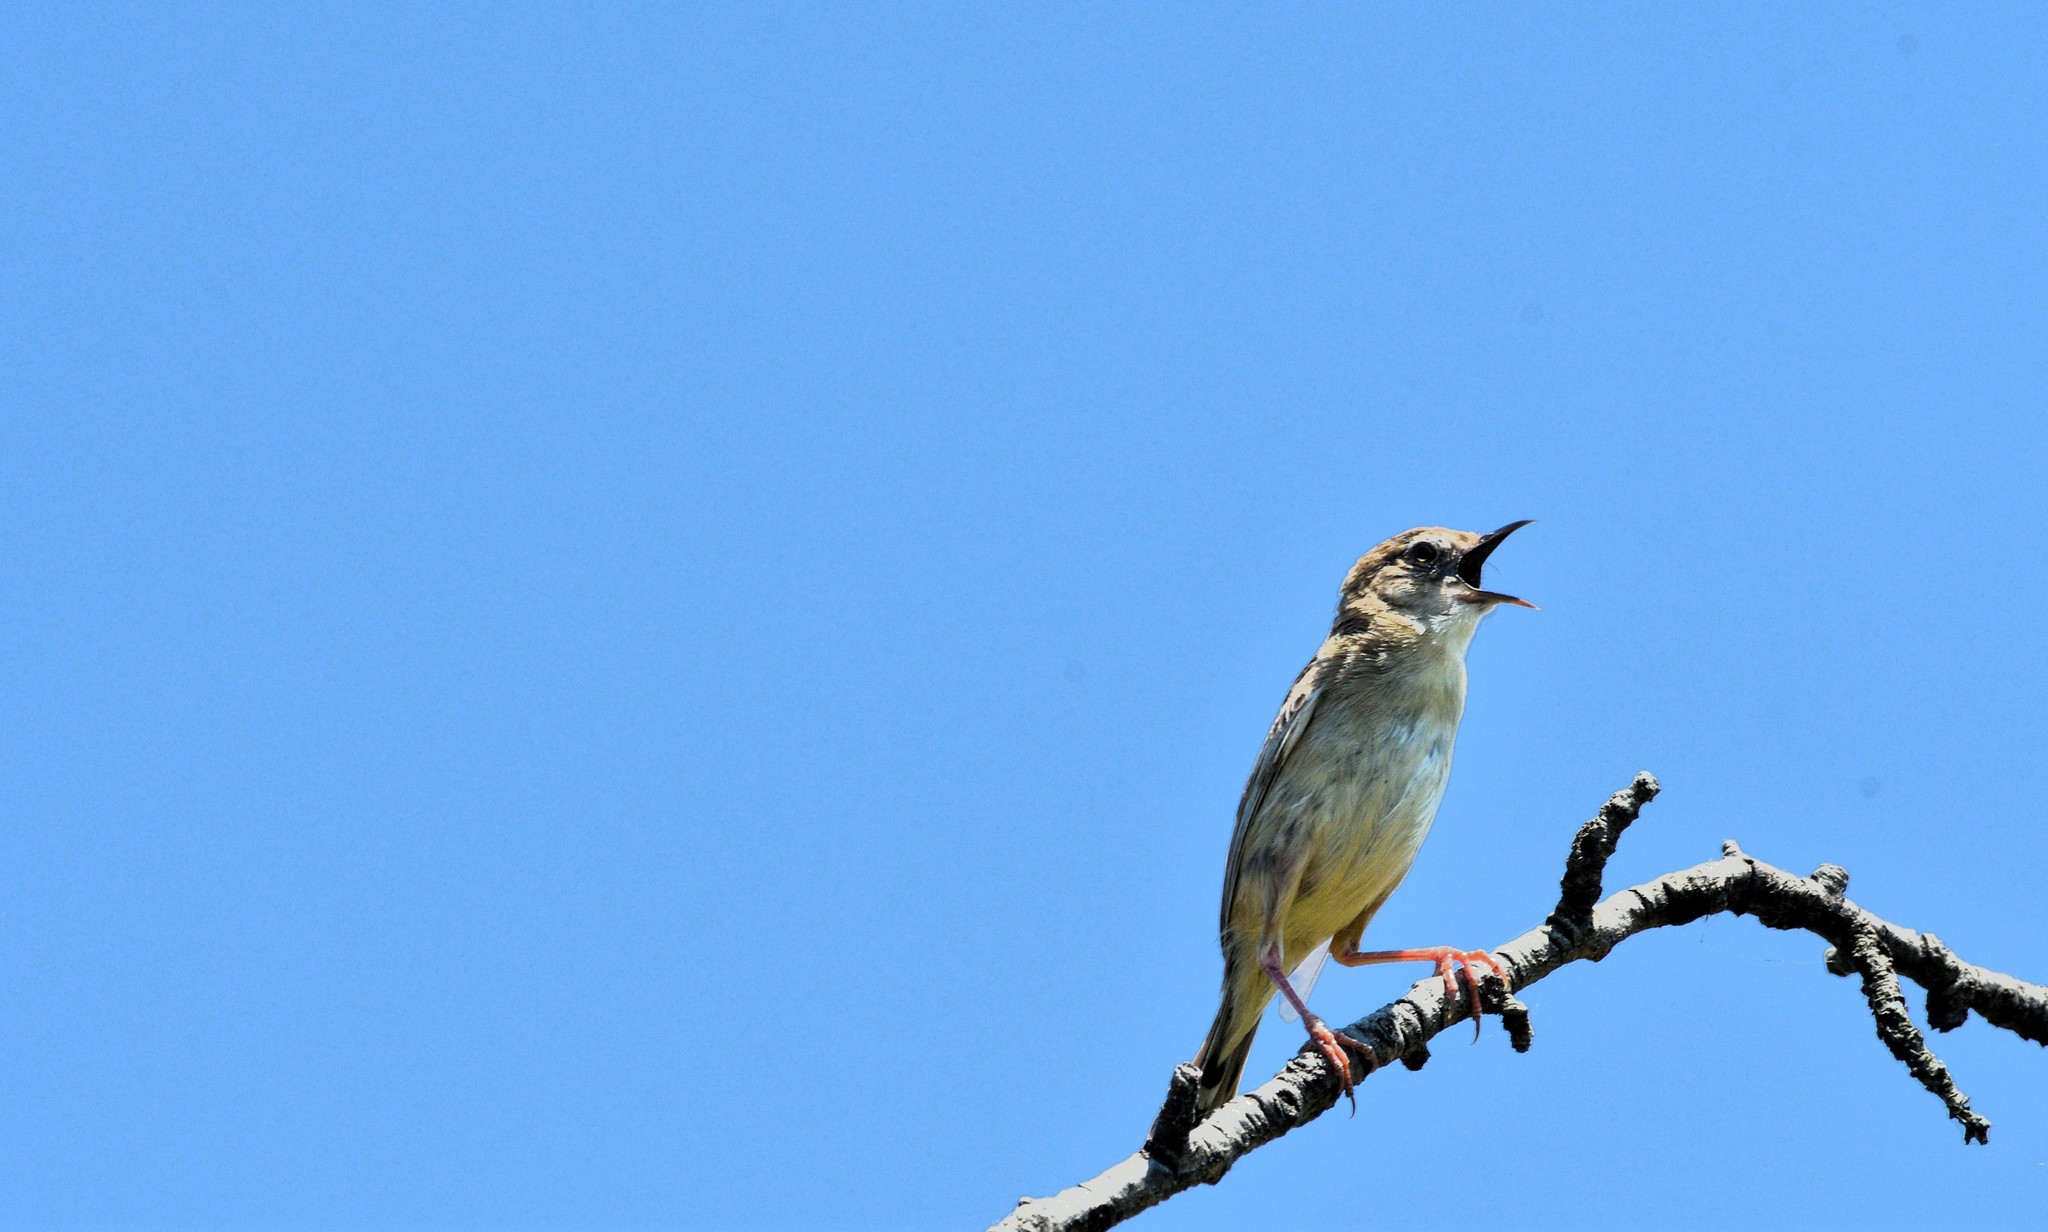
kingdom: Animalia
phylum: Chordata
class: Aves
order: Passeriformes
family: Cisticolidae
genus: Cisticola
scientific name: Cisticola juncidis
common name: Zitting cisticola
